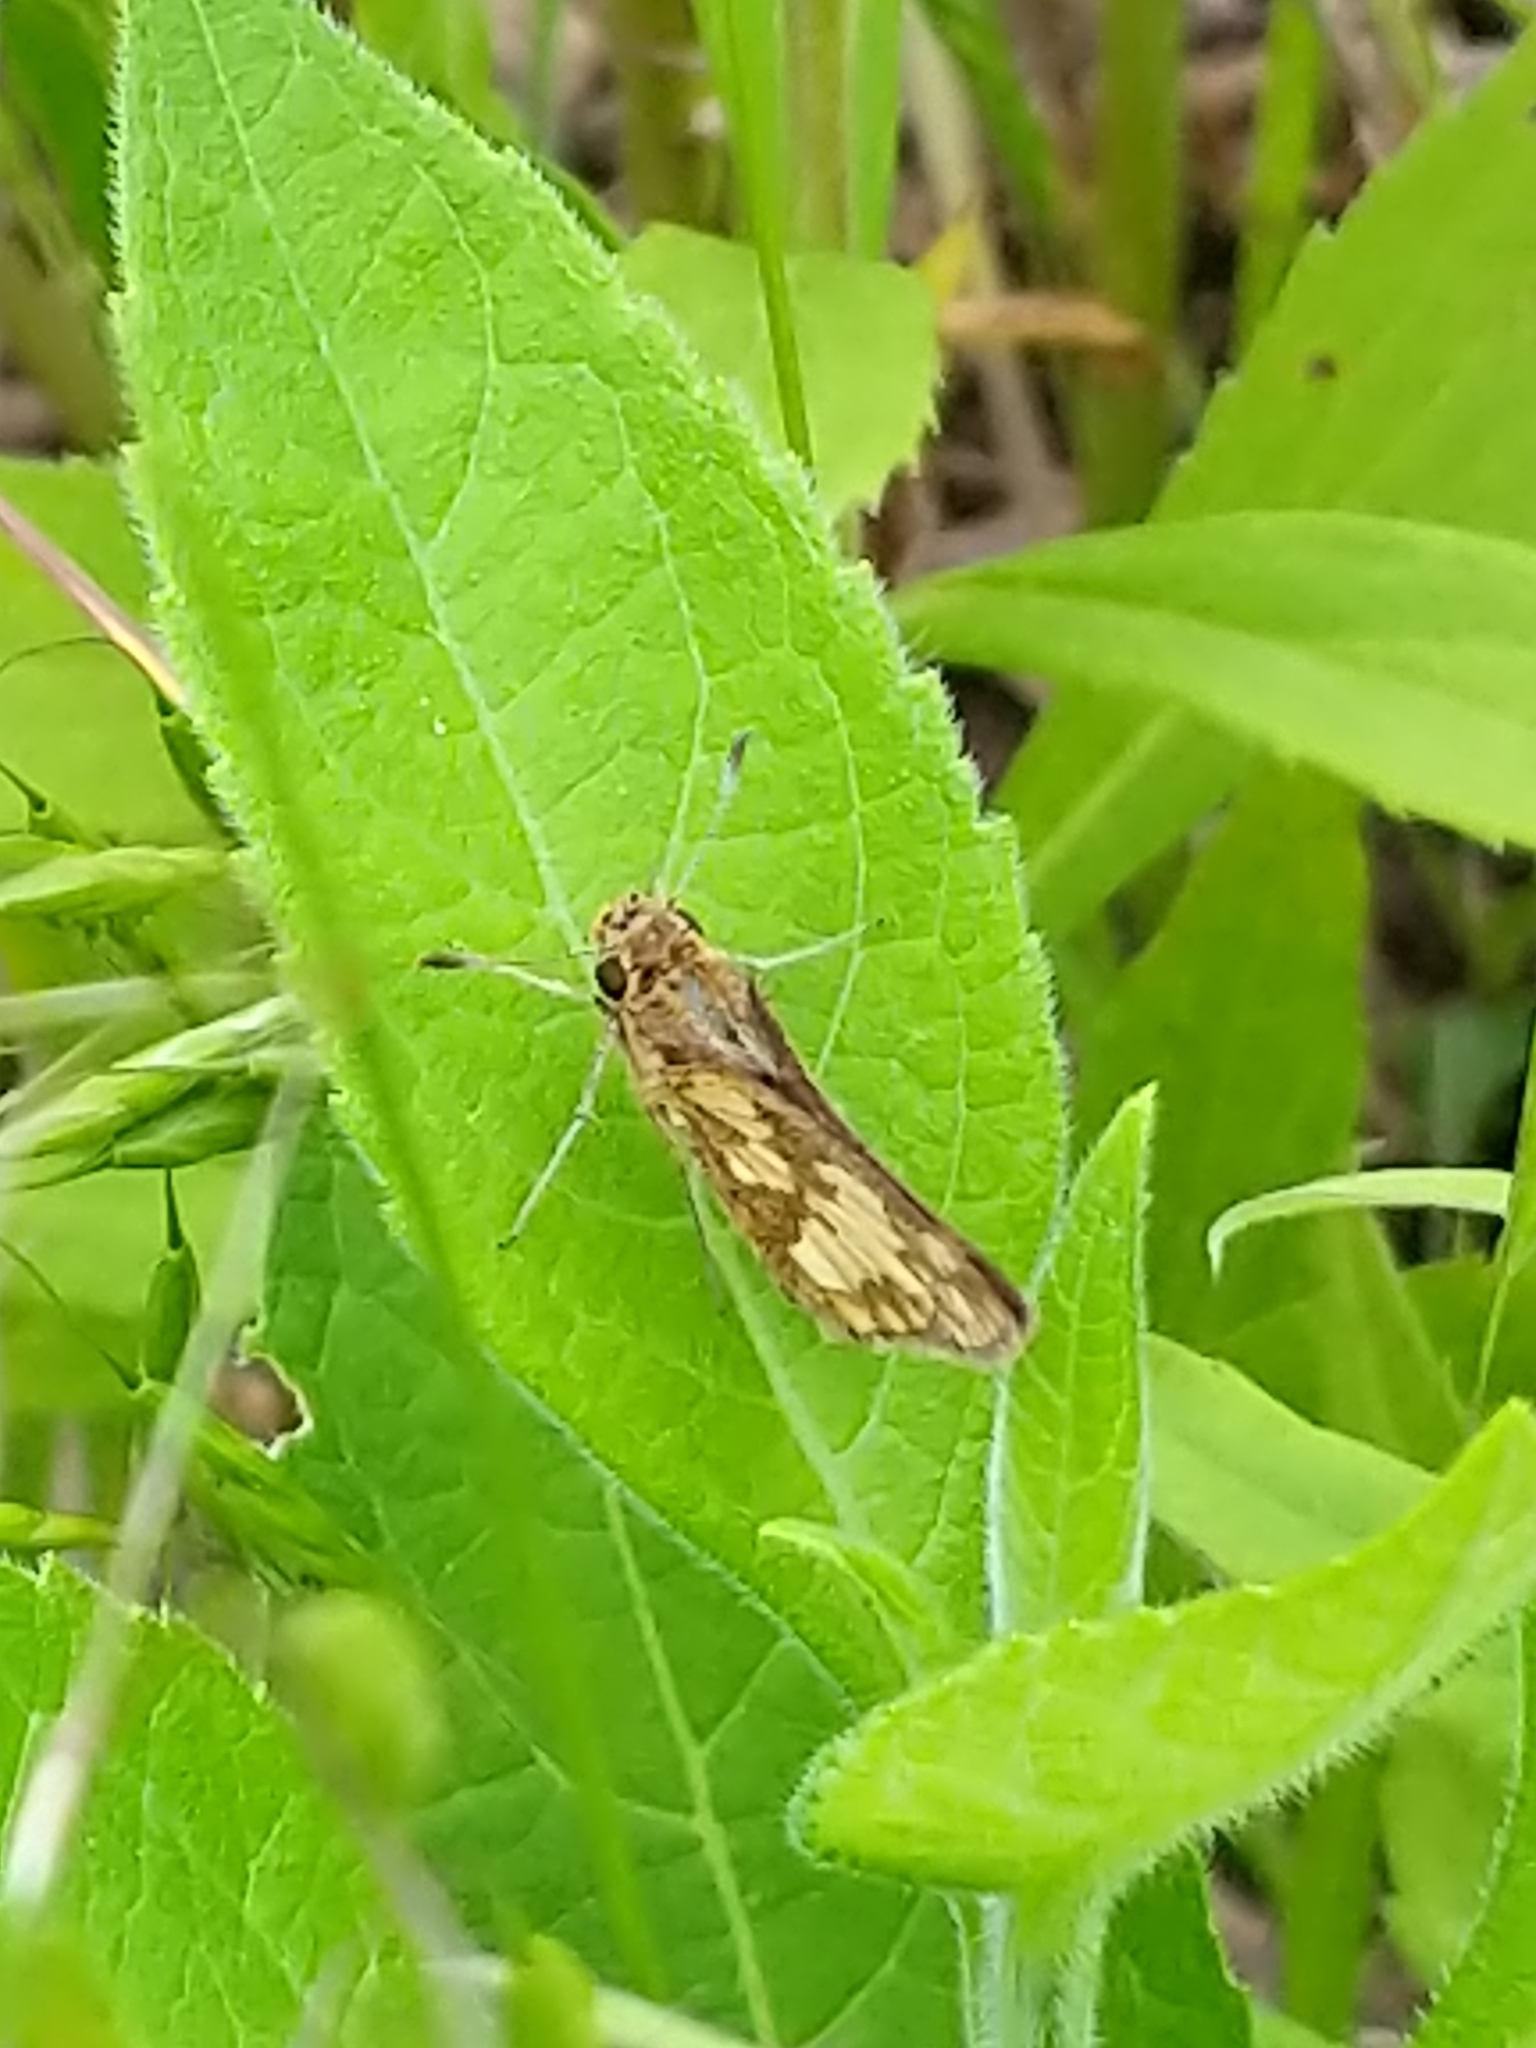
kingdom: Animalia
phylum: Arthropoda
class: Insecta
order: Lepidoptera
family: Hesperiidae
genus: Polites
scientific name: Polites coras
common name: Peck's skipper
